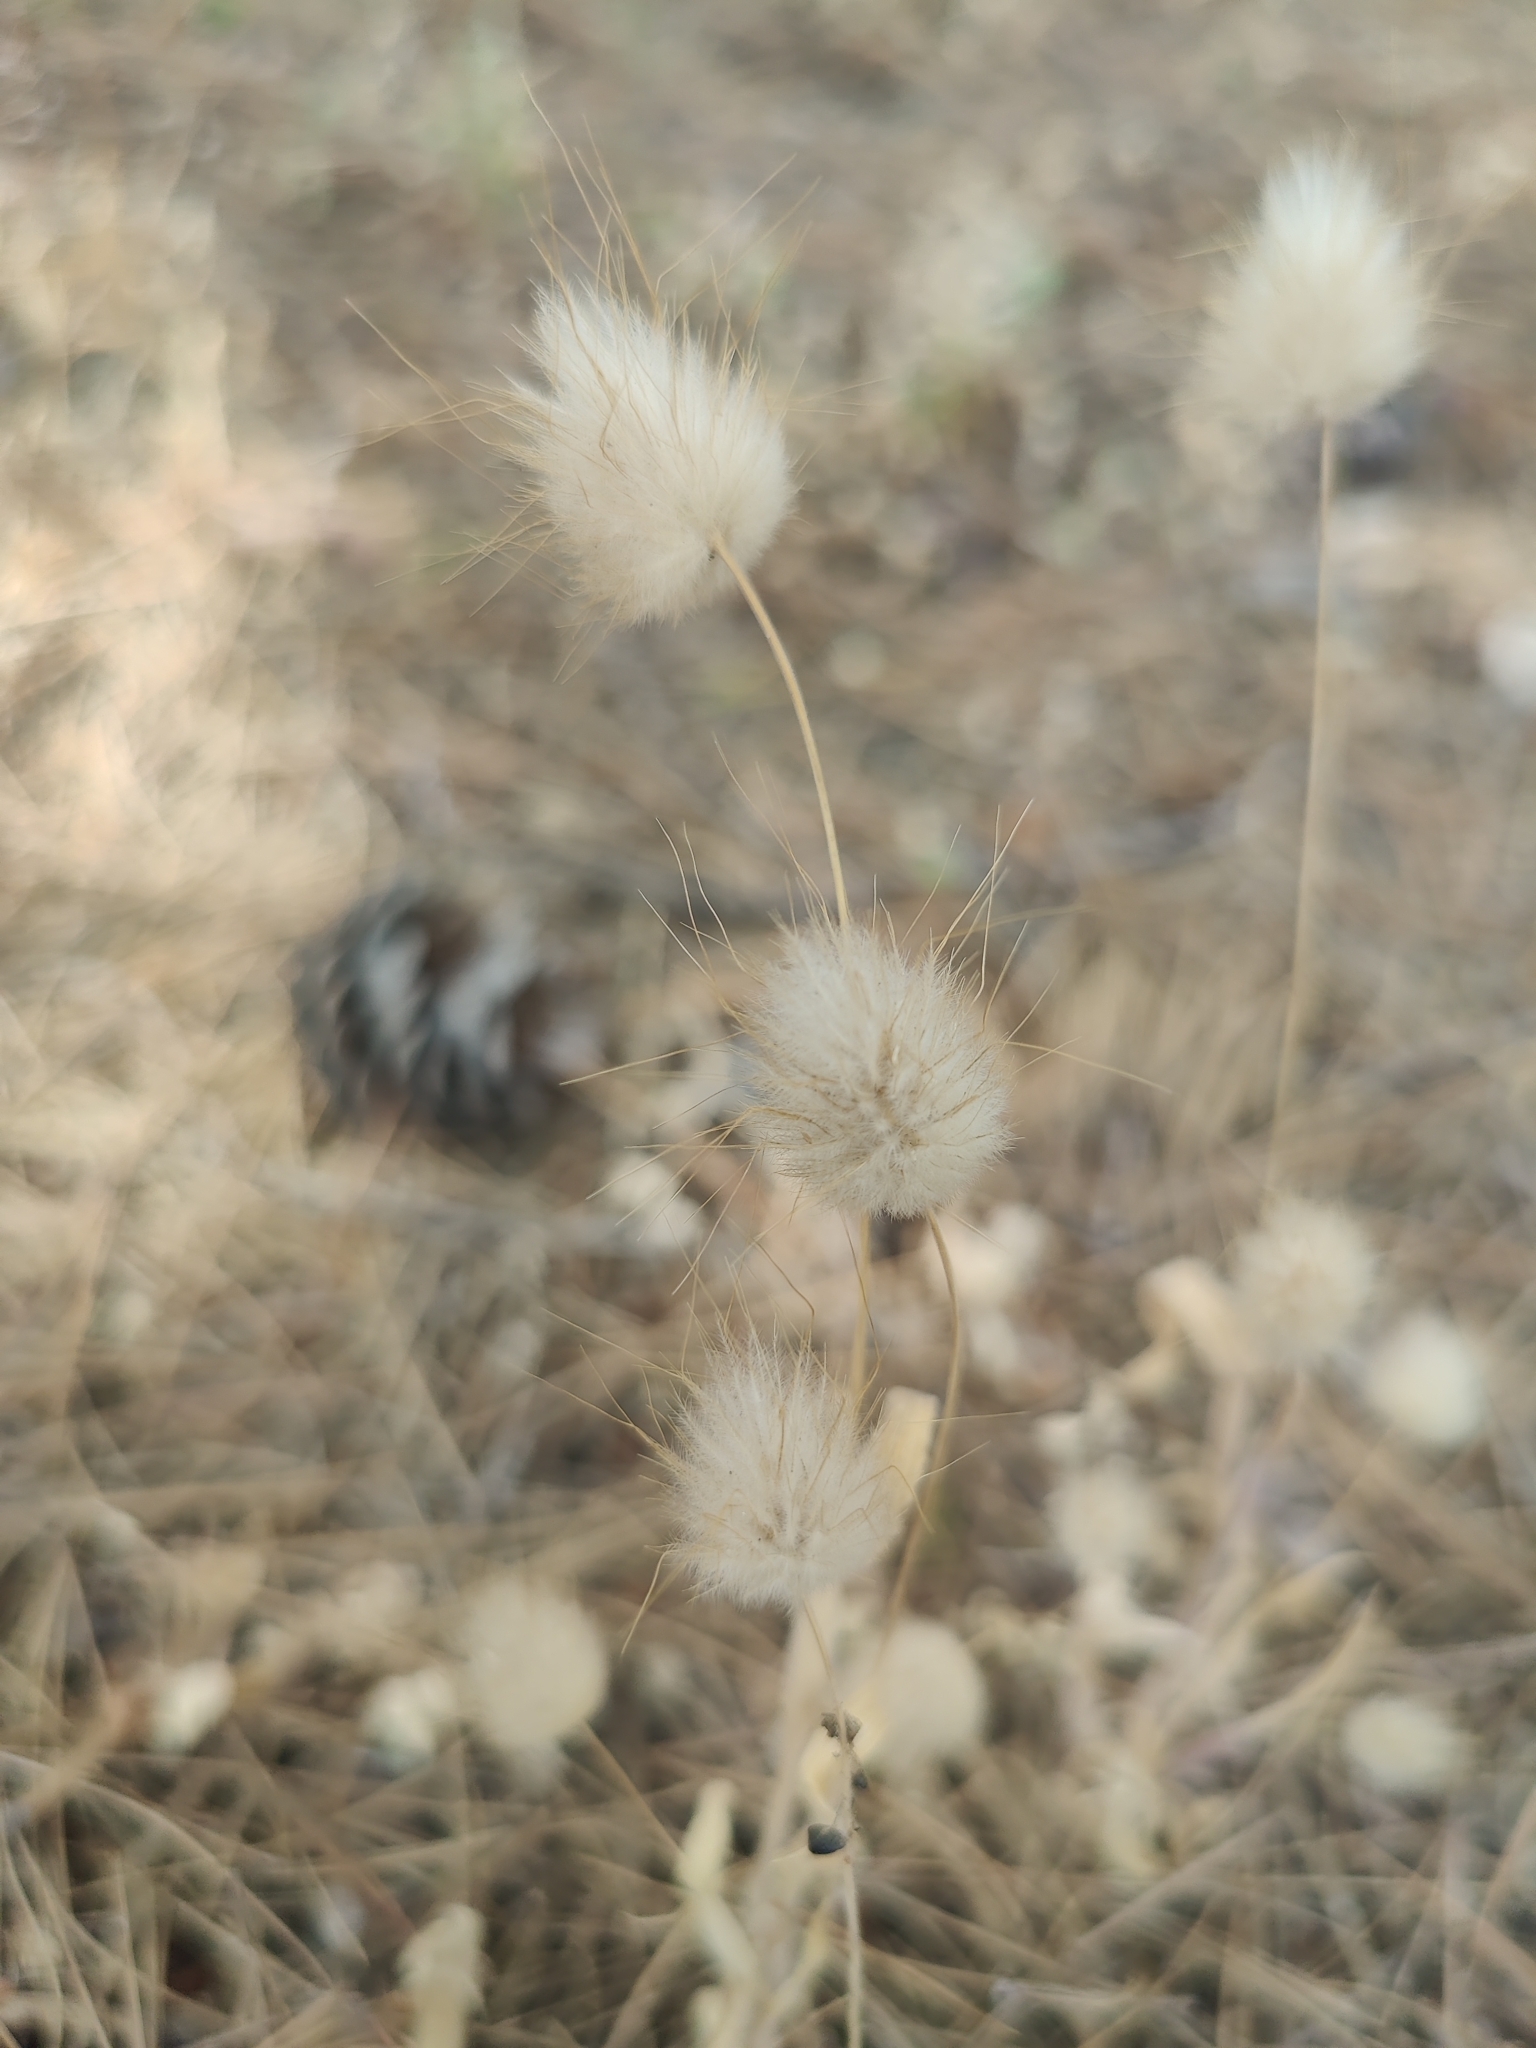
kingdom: Plantae
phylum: Tracheophyta
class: Liliopsida
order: Poales
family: Poaceae
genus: Lagurus
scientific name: Lagurus ovatus
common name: Hare's-tail
